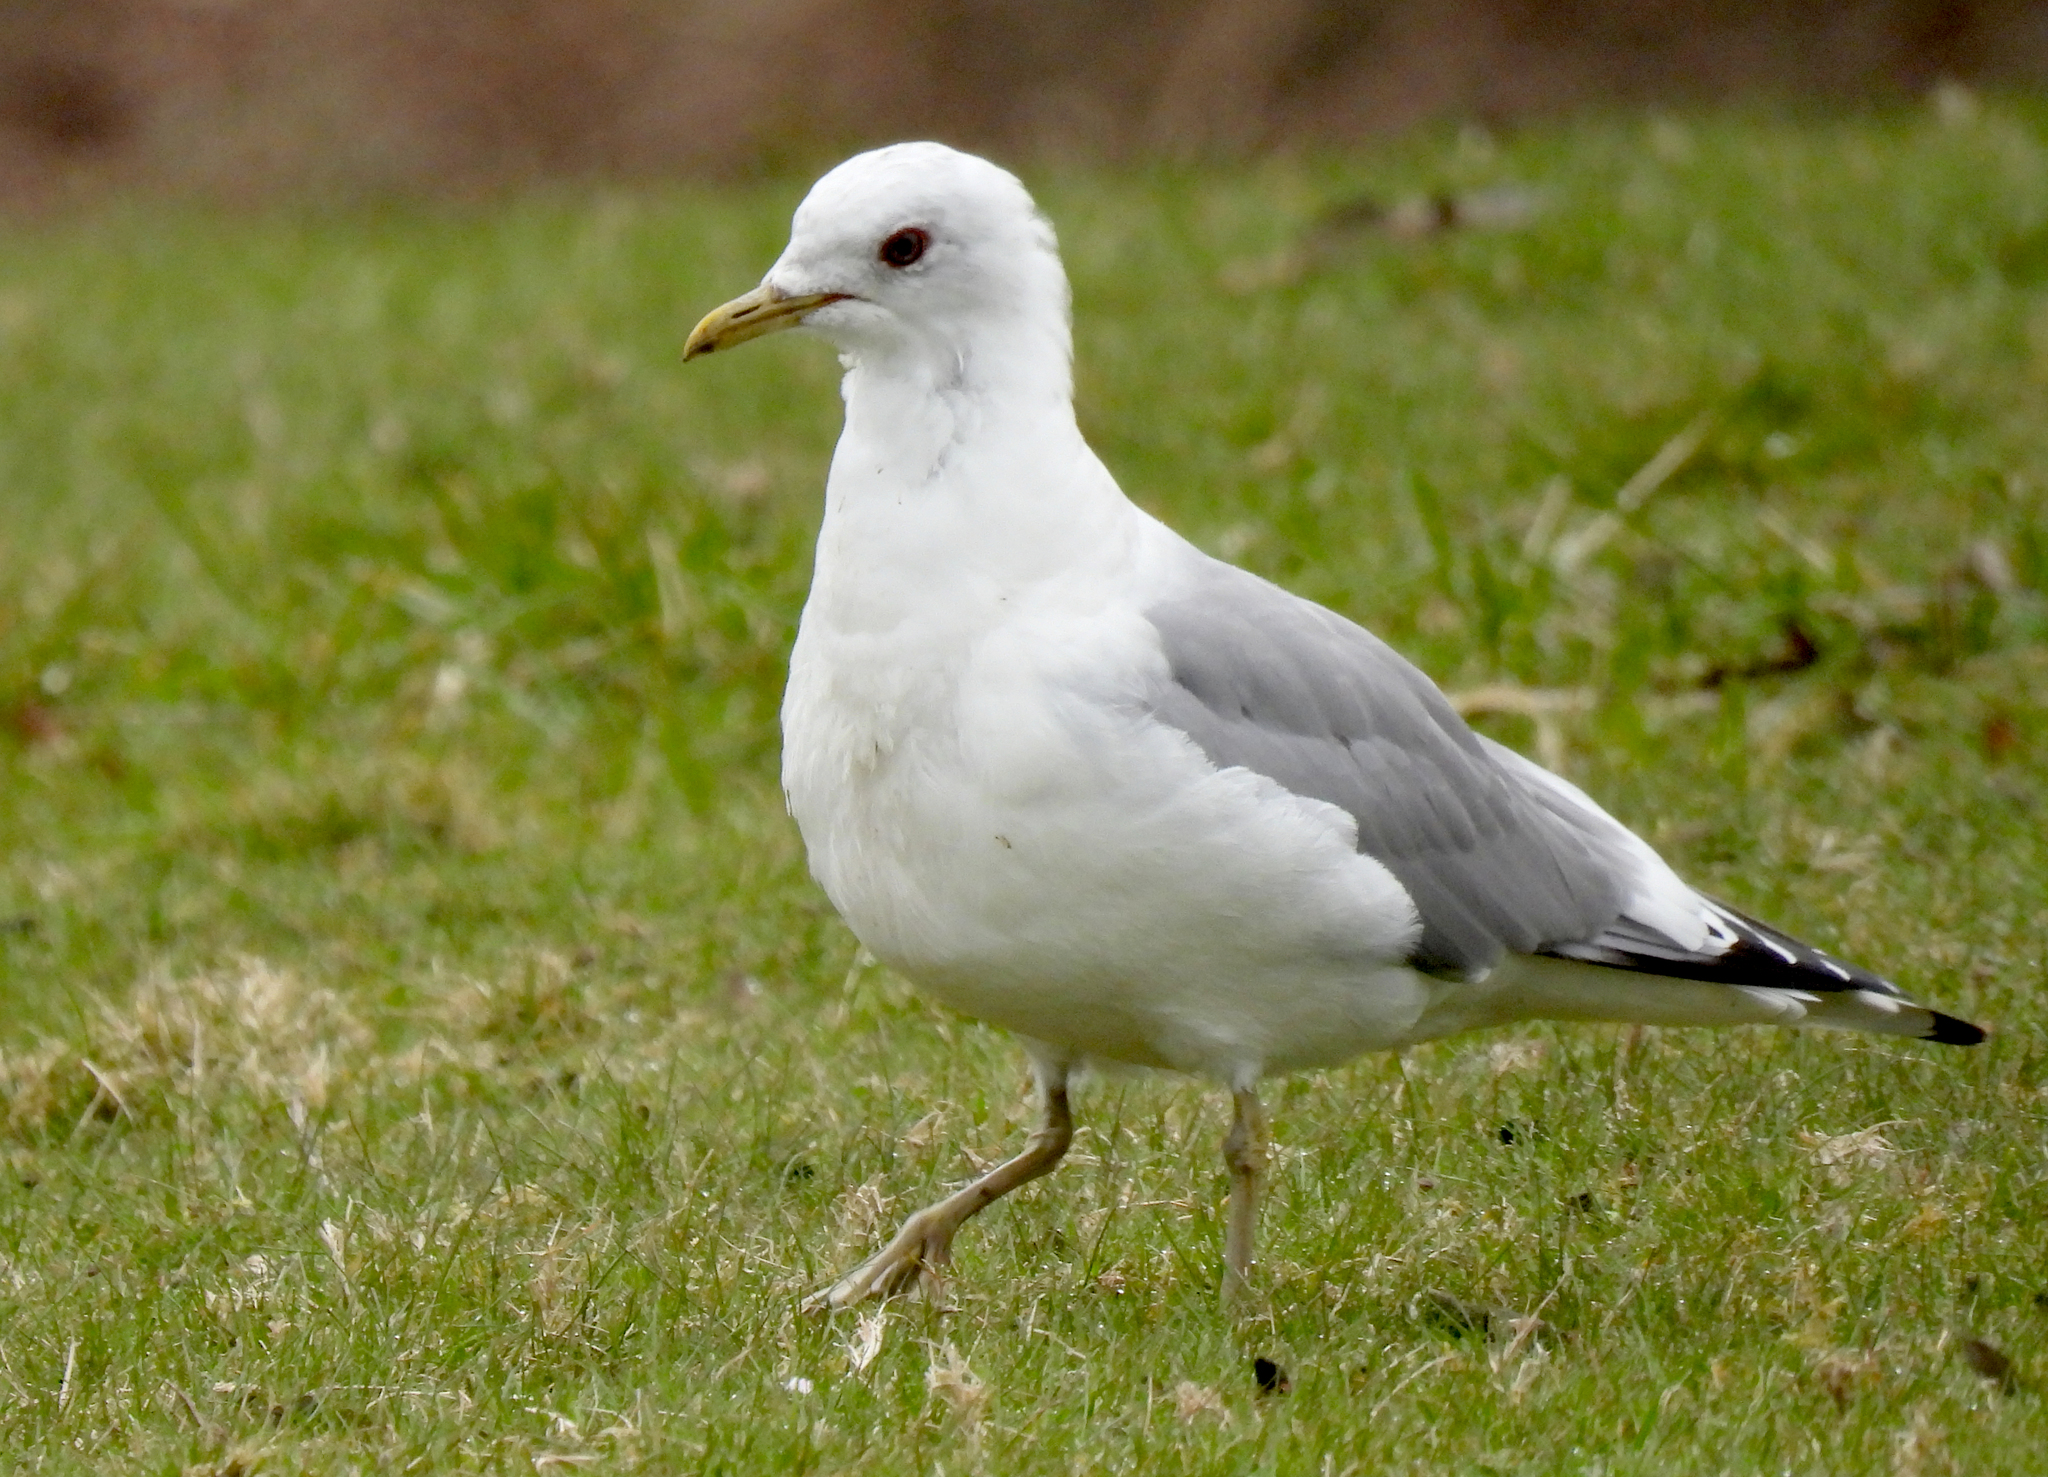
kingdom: Animalia
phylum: Chordata
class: Aves
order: Charadriiformes
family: Laridae
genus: Larus
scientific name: Larus brachyrhynchus
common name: Short-billed gull
